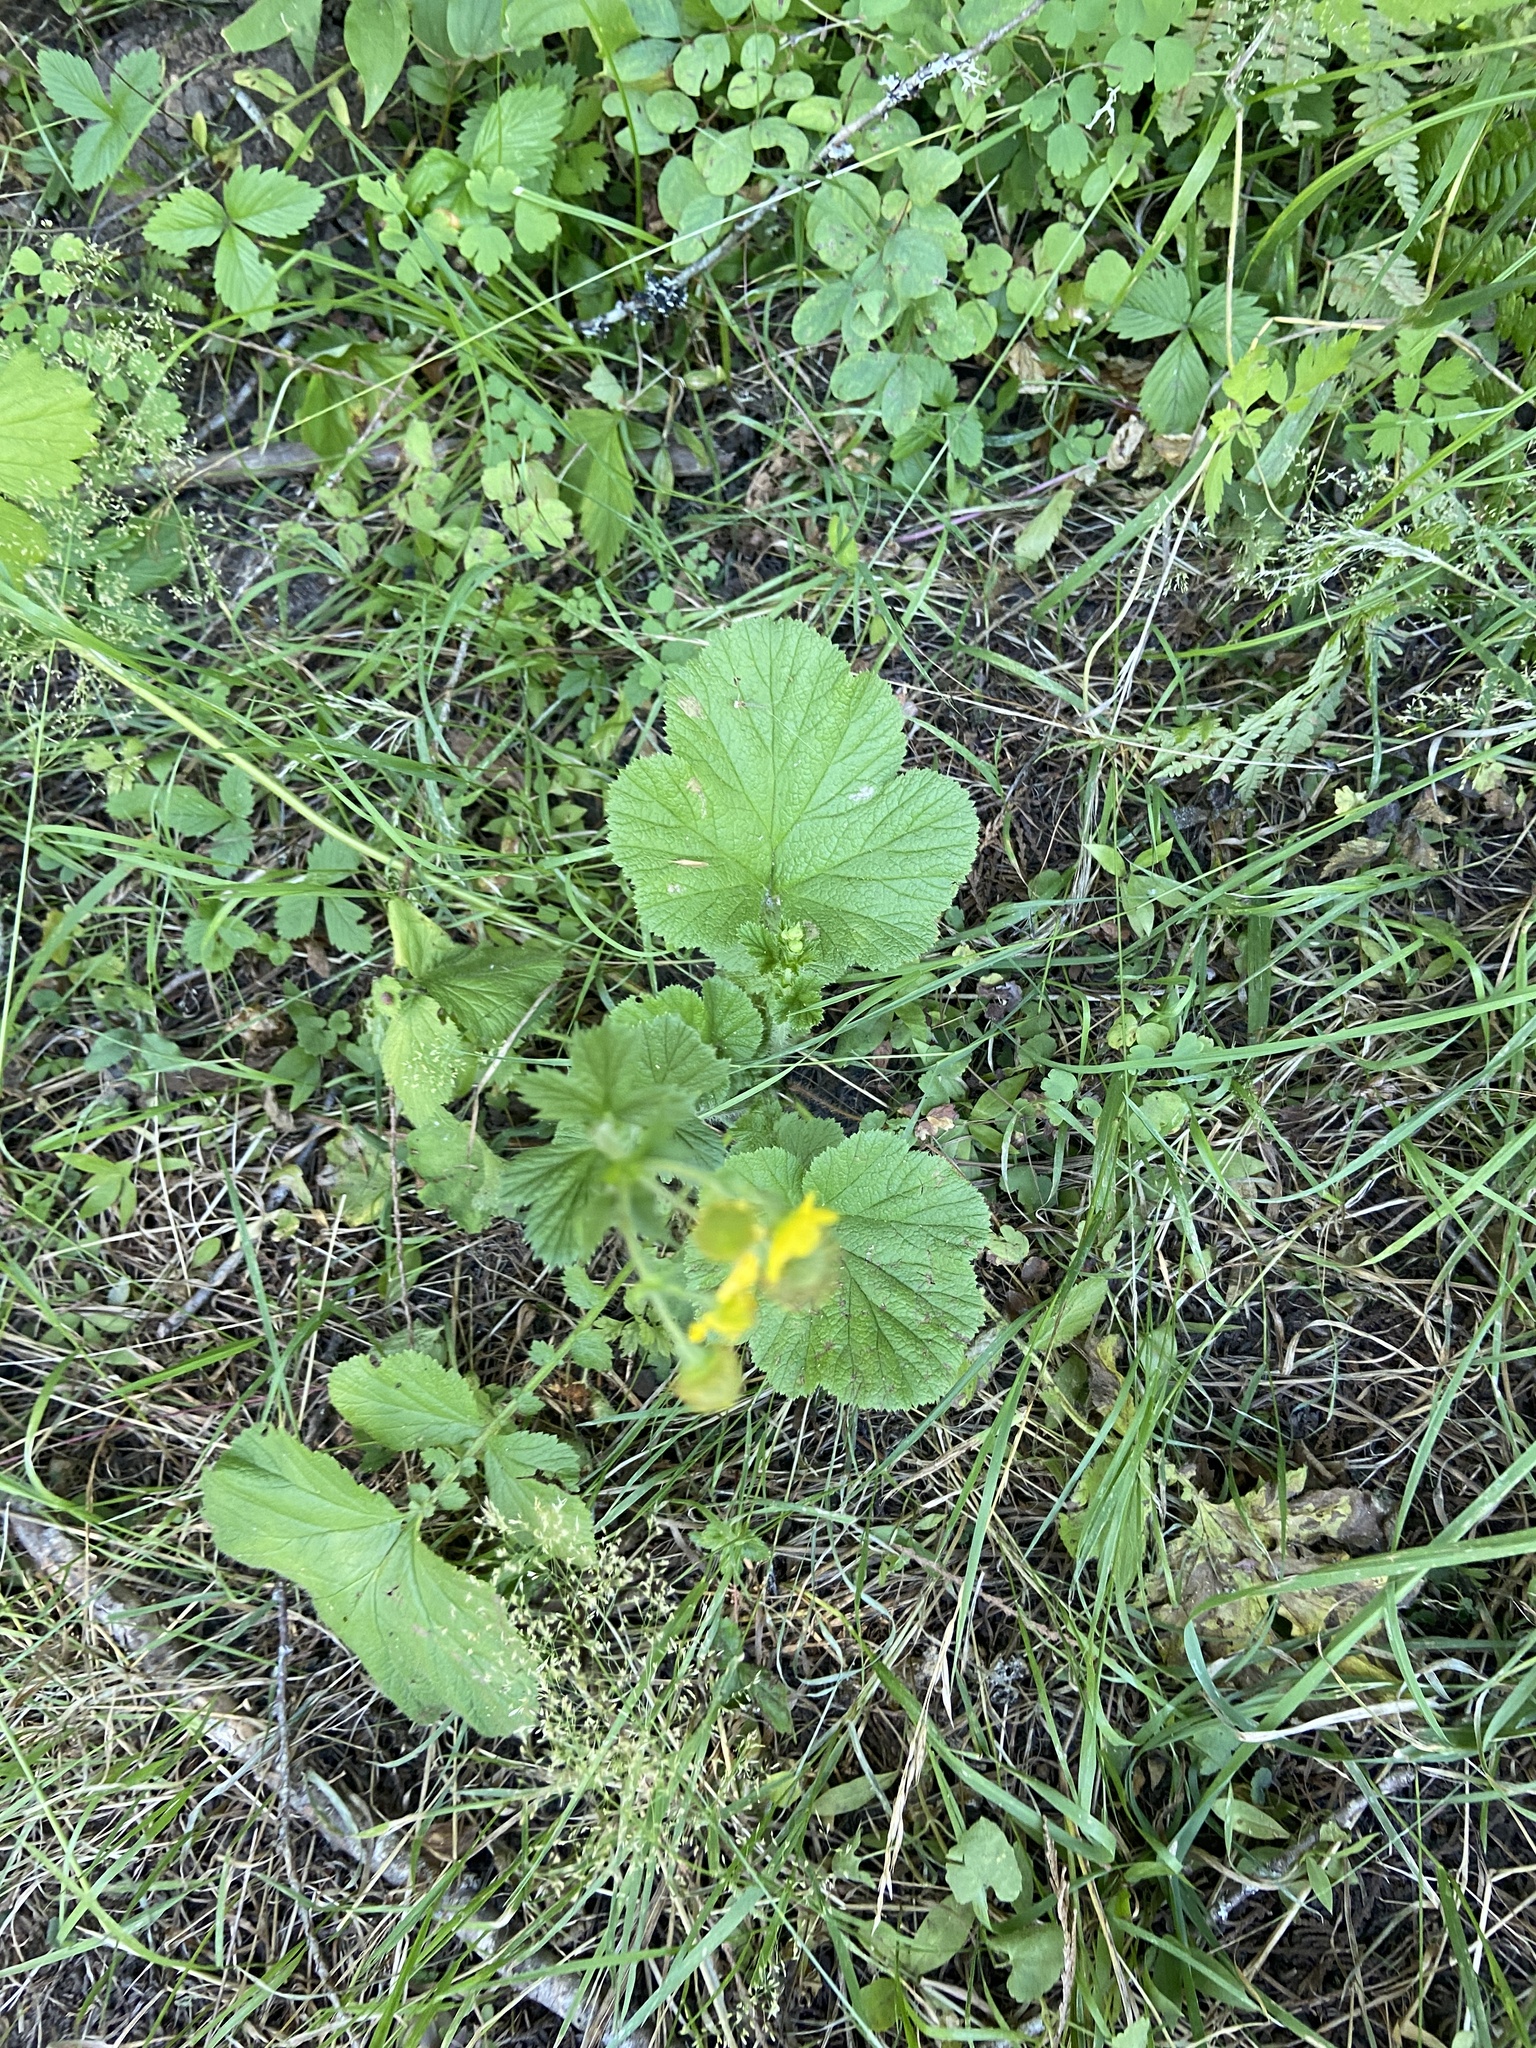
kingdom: Plantae
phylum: Tracheophyta
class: Magnoliopsida
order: Rosales
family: Rosaceae
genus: Geum
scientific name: Geum macrophyllum
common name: Large-leaved avens
